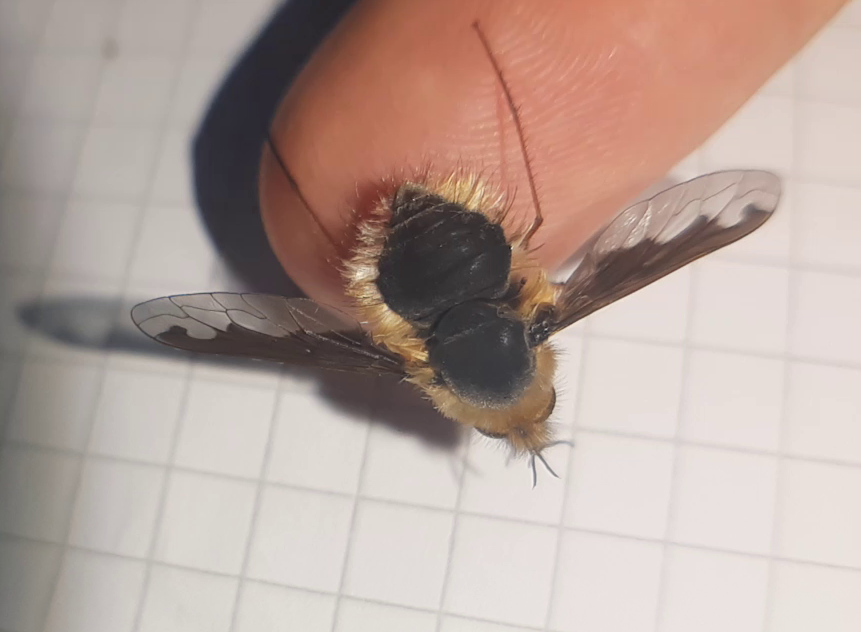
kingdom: Animalia
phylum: Arthropoda
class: Insecta
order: Diptera
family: Bombyliidae
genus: Bombylius
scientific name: Bombylius major
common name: Bee fly
